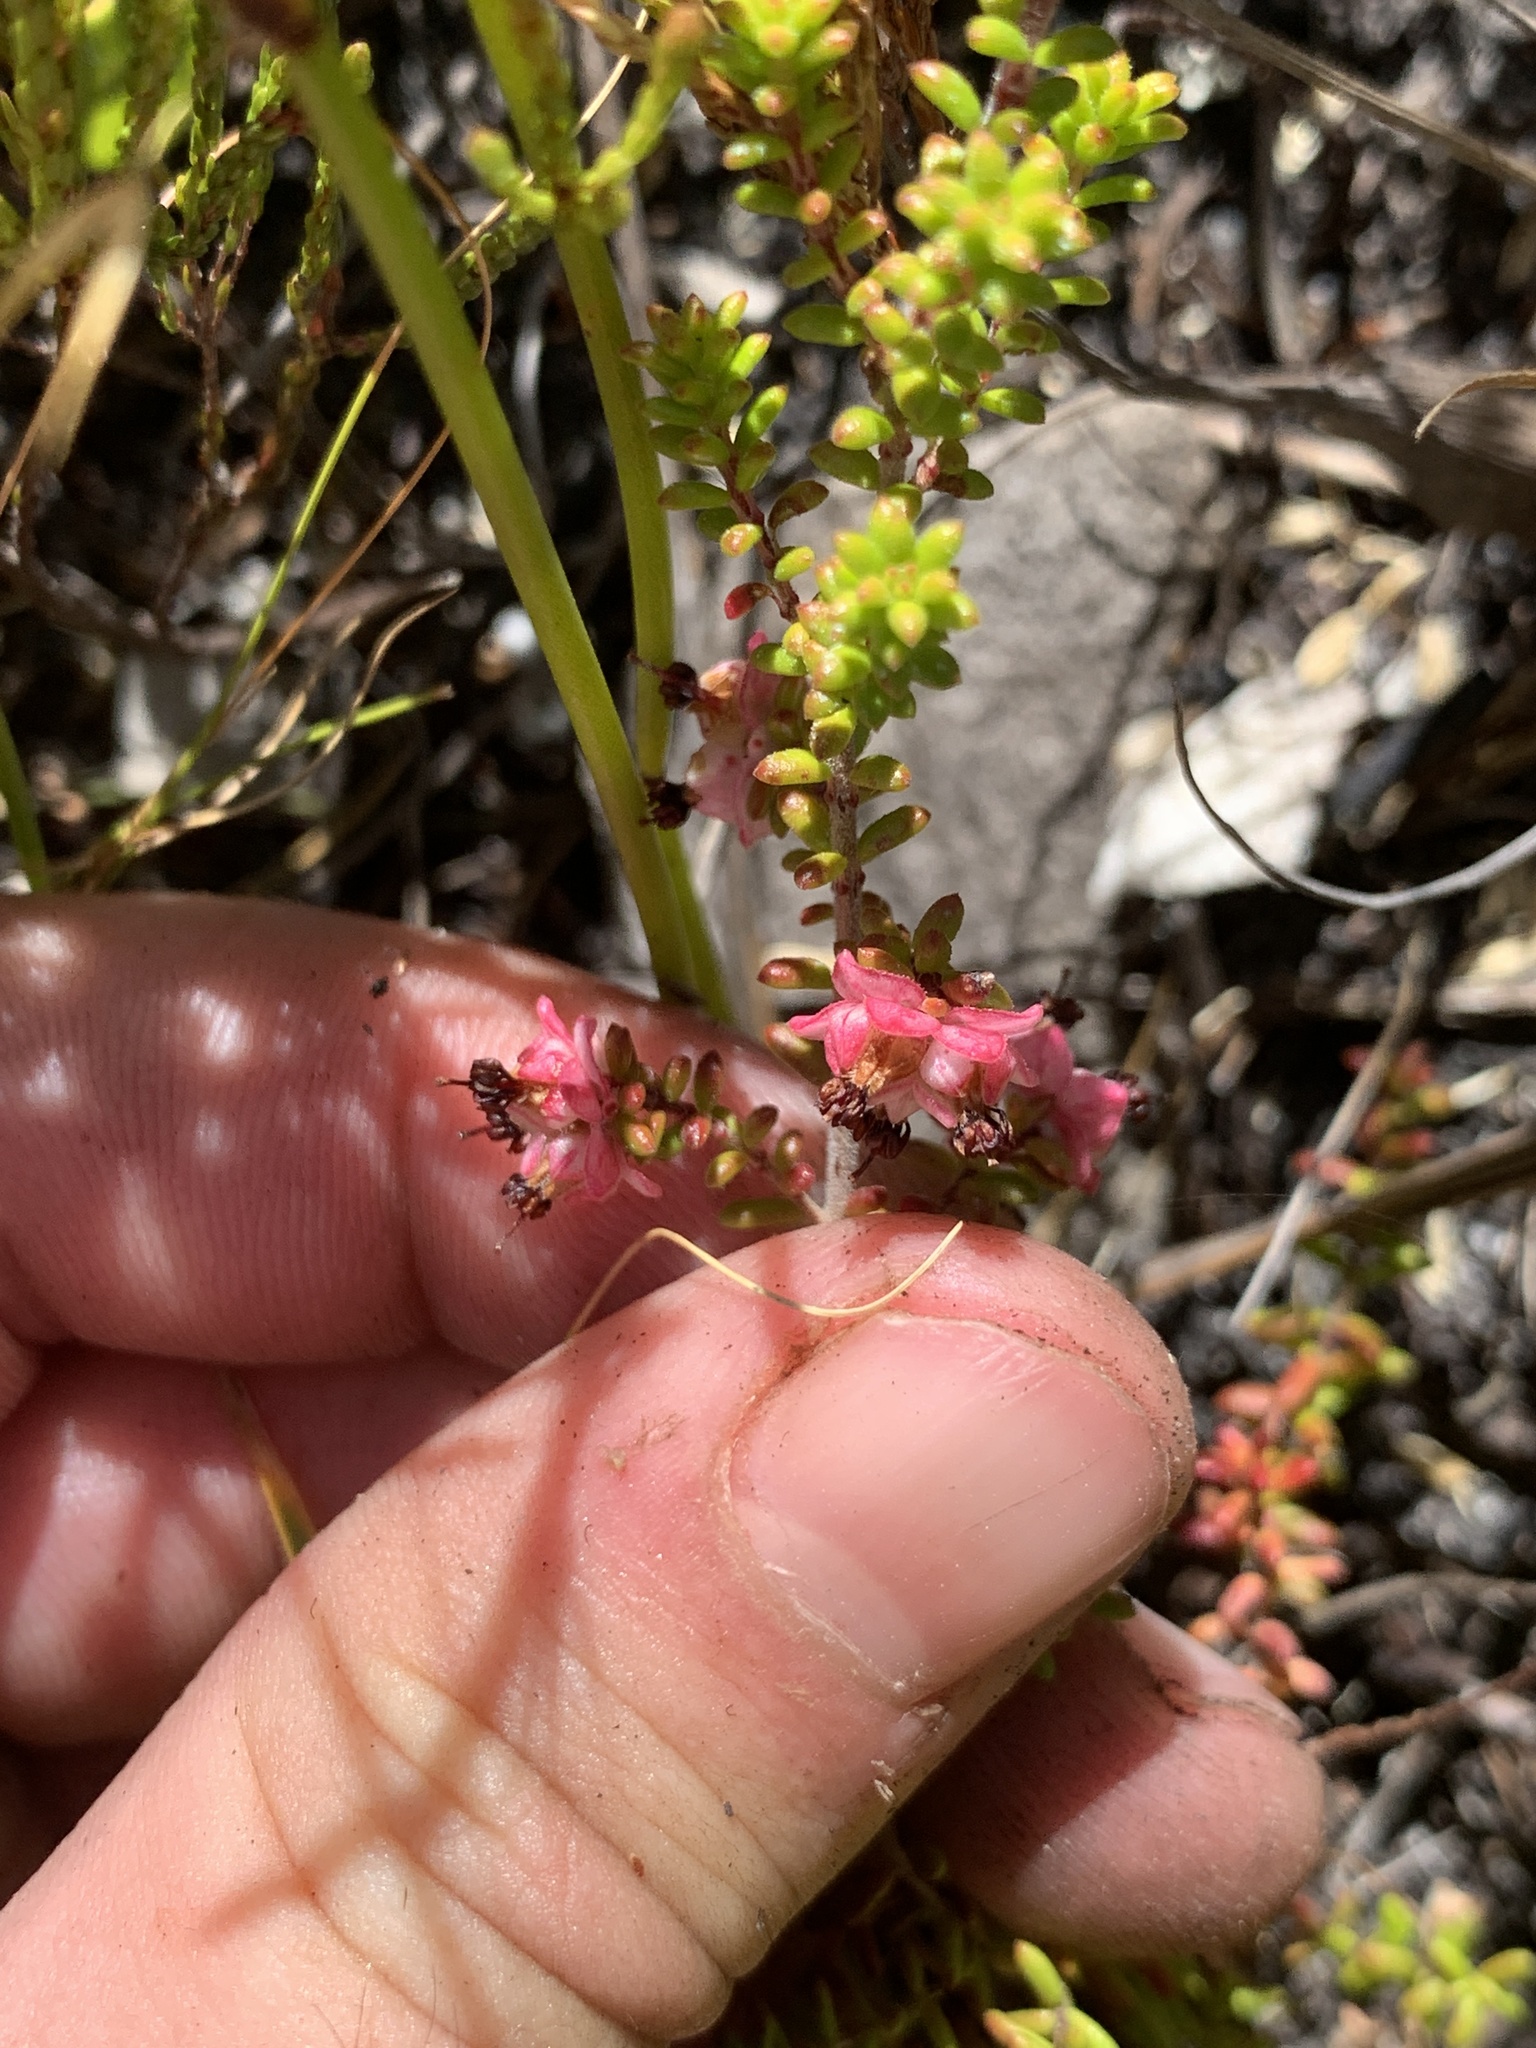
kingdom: Plantae
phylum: Tracheophyta
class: Magnoliopsida
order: Ericales
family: Ericaceae
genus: Erica
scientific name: Erica azaleifolia
